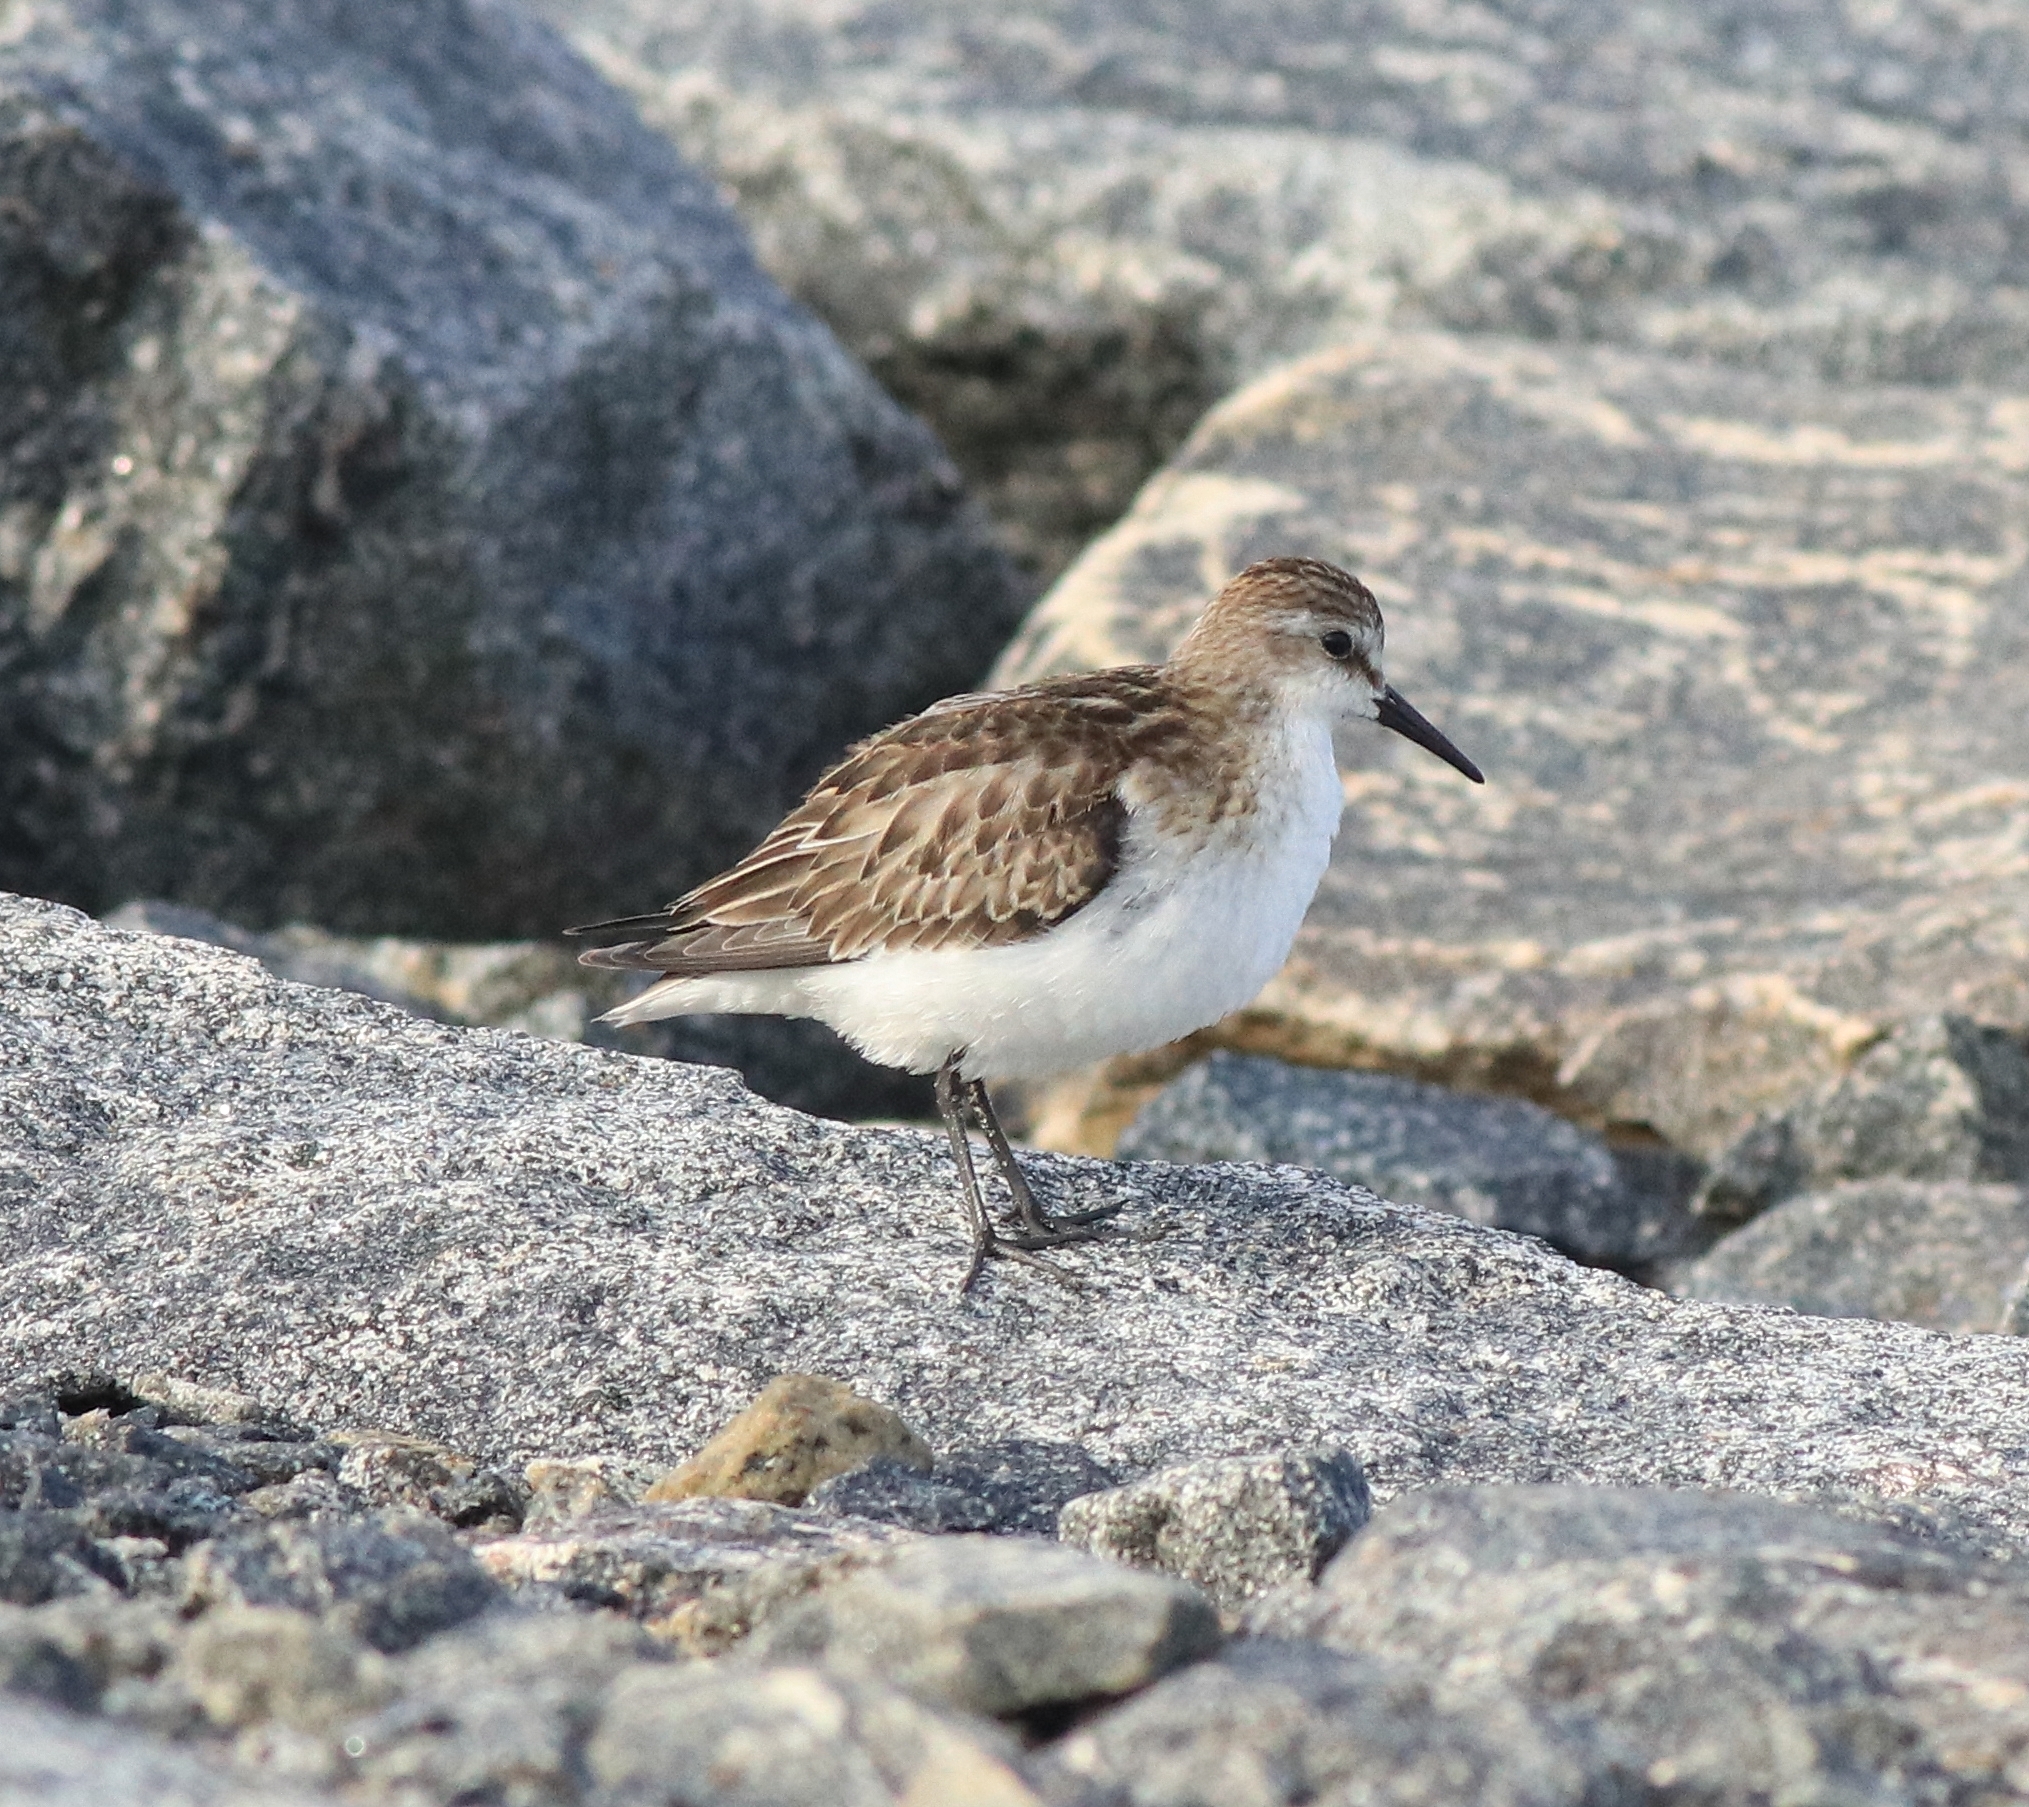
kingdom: Animalia
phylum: Chordata
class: Aves
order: Charadriiformes
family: Scolopacidae
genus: Calidris
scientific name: Calidris minuta
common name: Little stint
